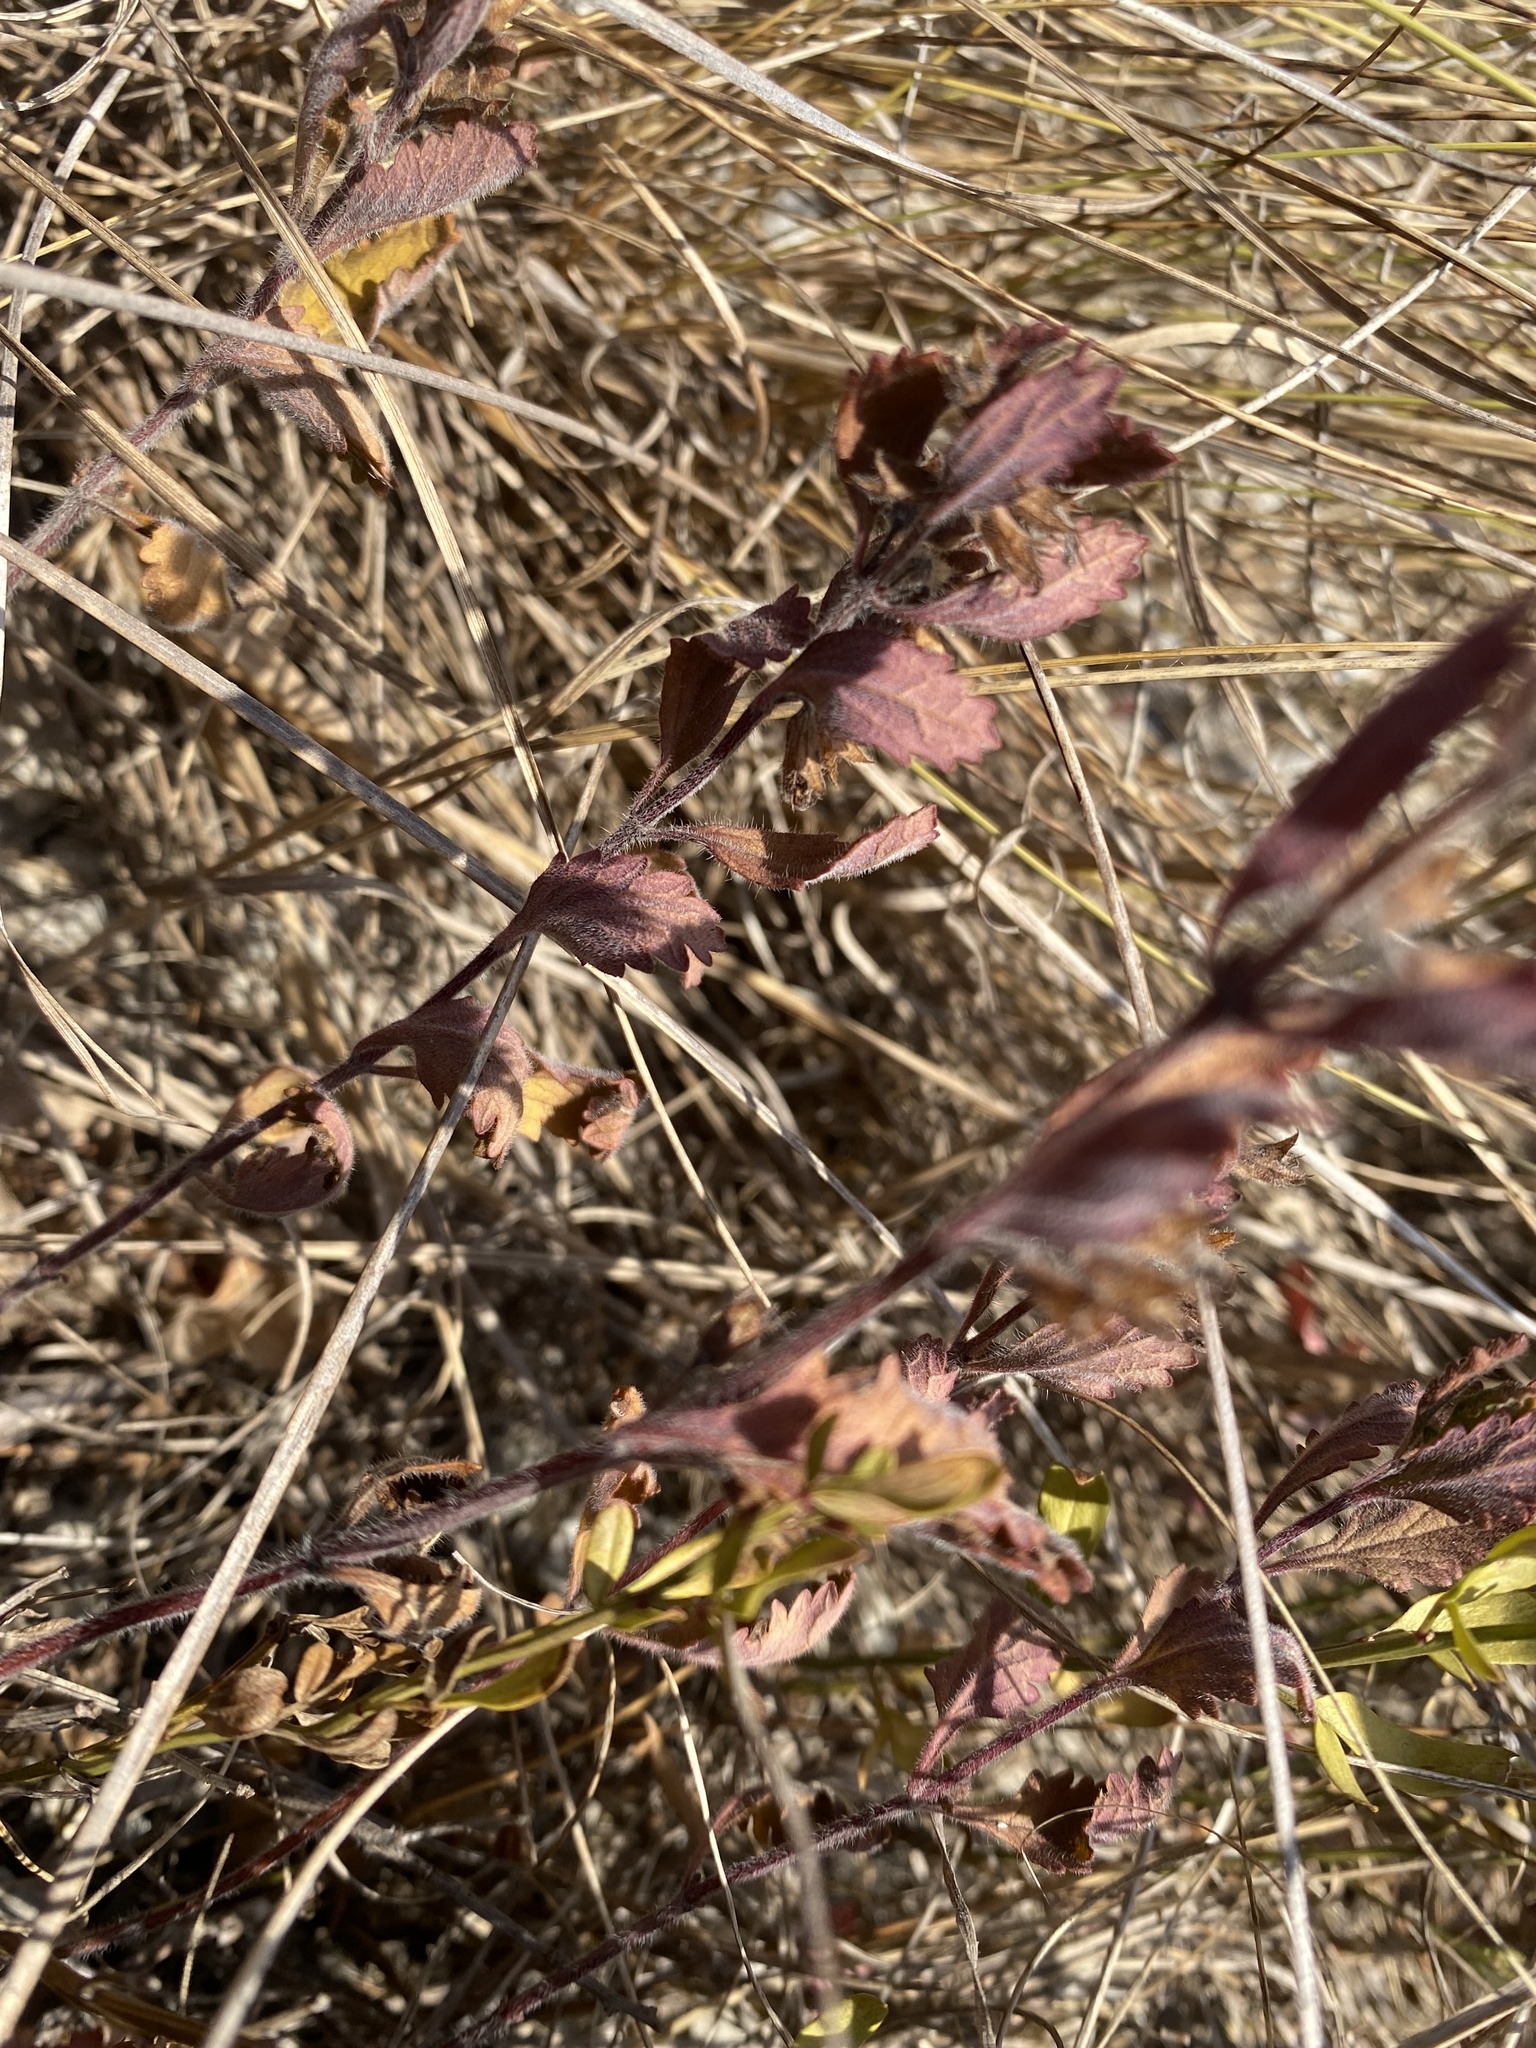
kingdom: Plantae
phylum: Tracheophyta
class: Magnoliopsida
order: Lamiales
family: Lamiaceae
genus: Teucrium
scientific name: Teucrium chamaedrys
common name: Wall germander
